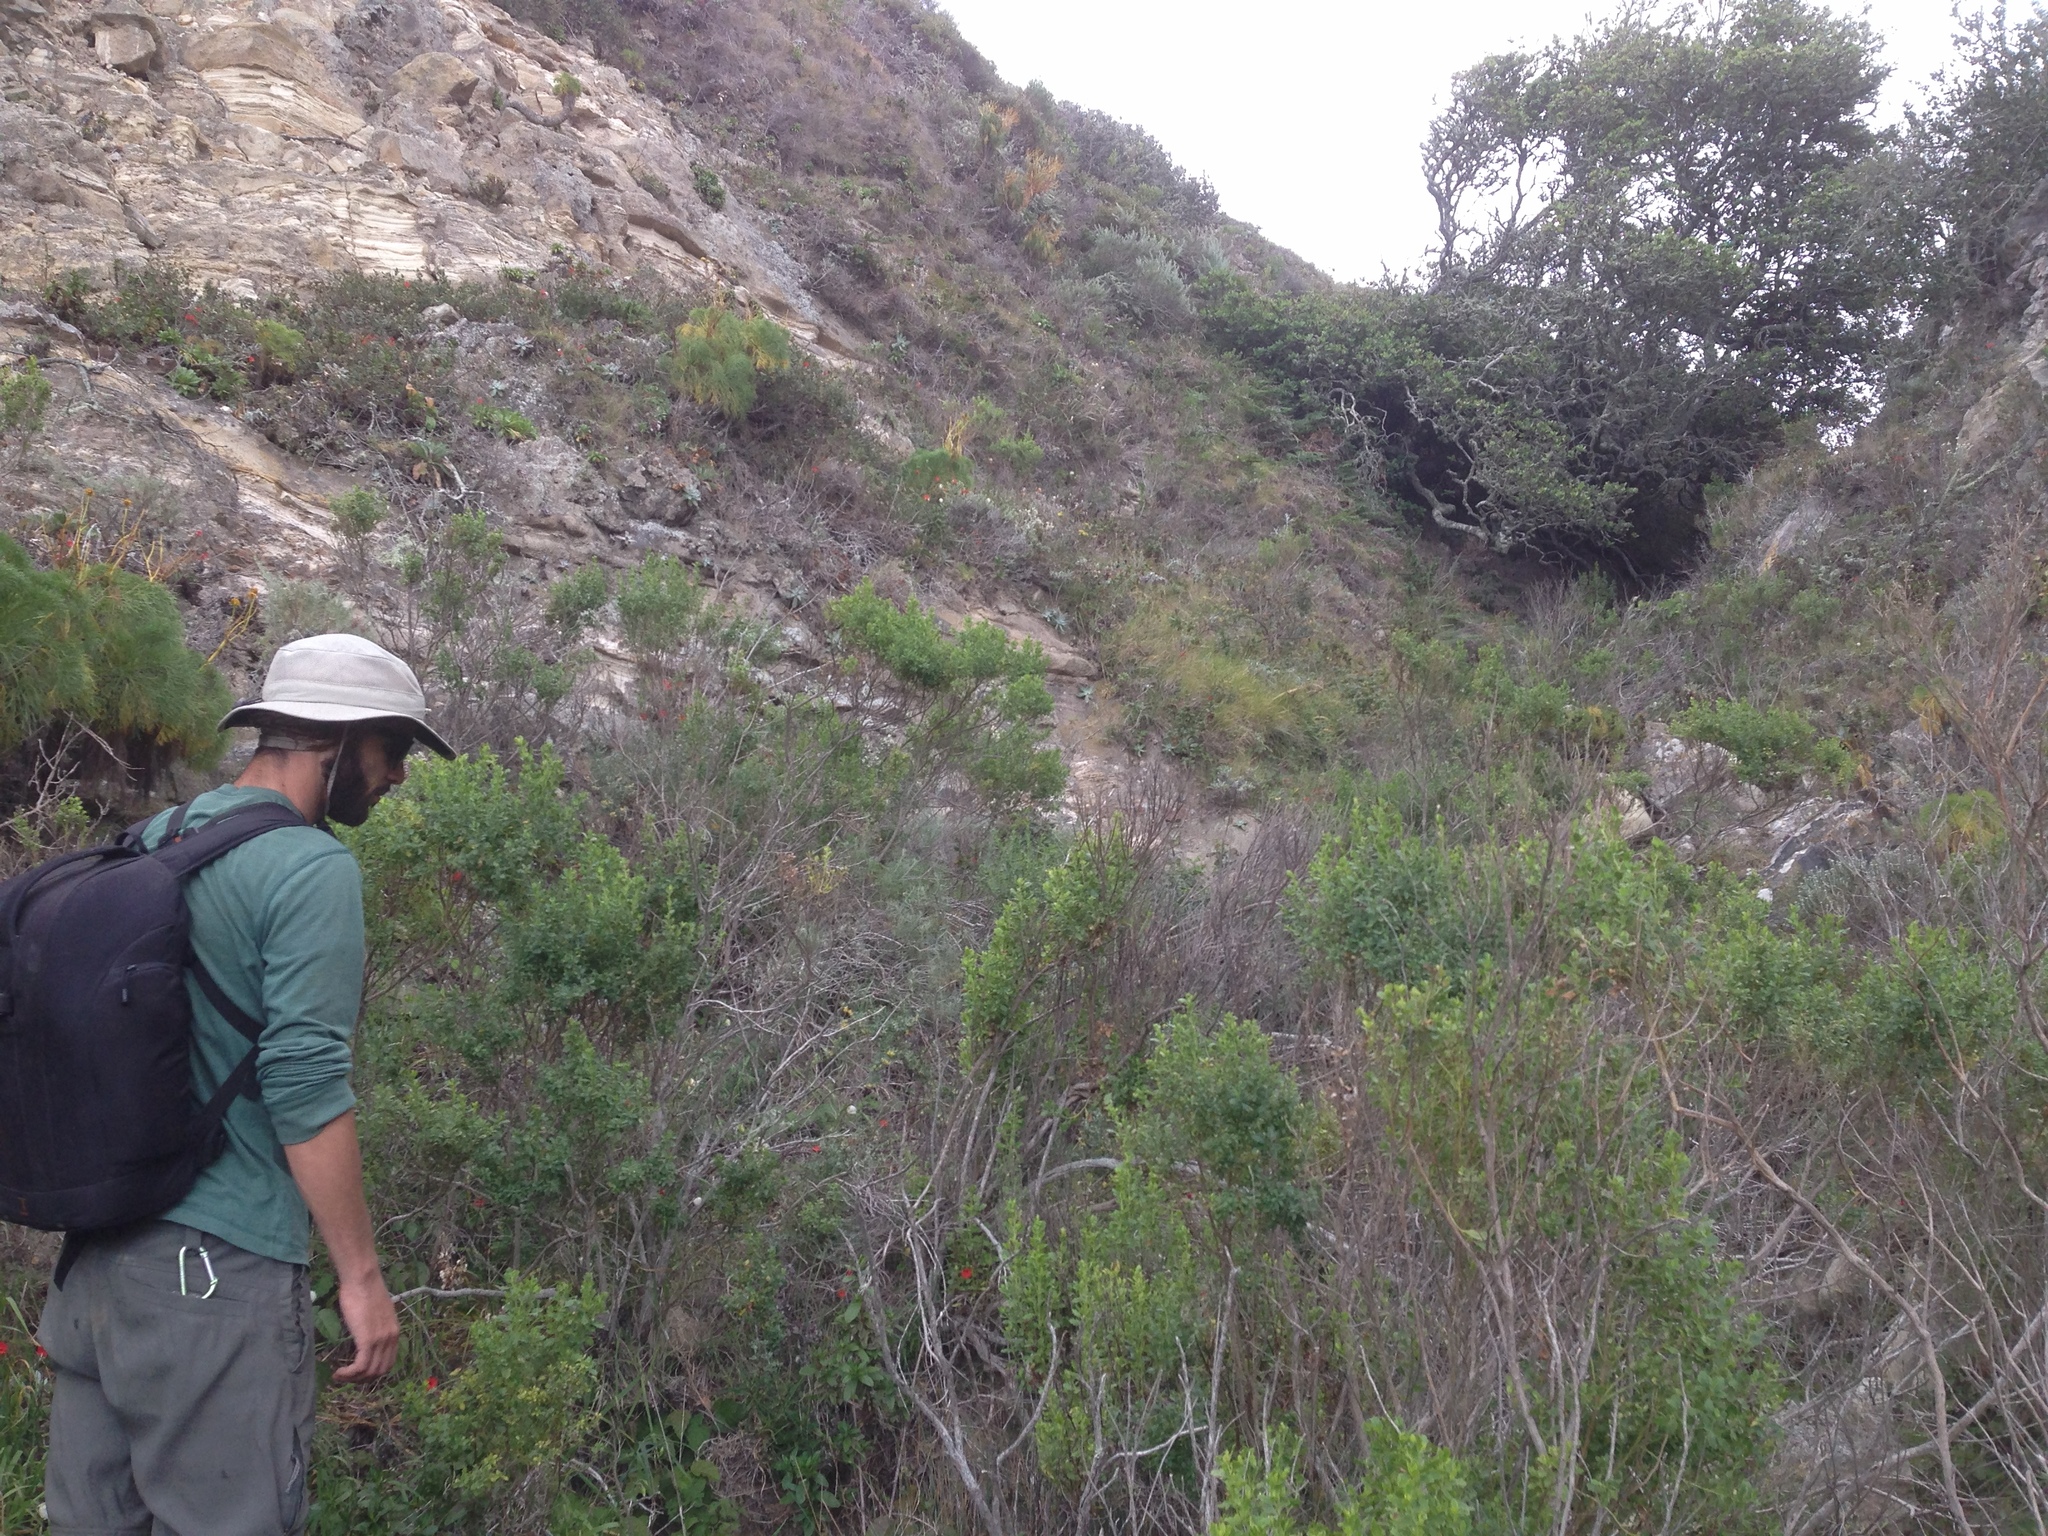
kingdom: Plantae
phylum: Tracheophyta
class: Magnoliopsida
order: Asterales
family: Asteraceae
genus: Baccharis
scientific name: Baccharis pilularis
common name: Coyotebrush
